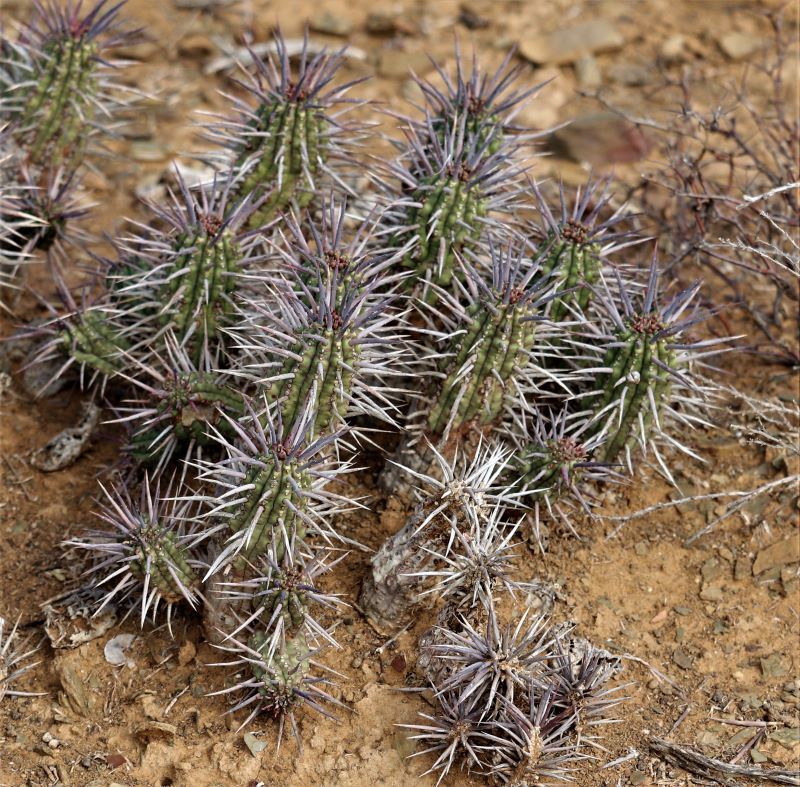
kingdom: Plantae
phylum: Tracheophyta
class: Magnoliopsida
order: Malpighiales
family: Euphorbiaceae
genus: Euphorbia
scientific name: Euphorbia ferox
